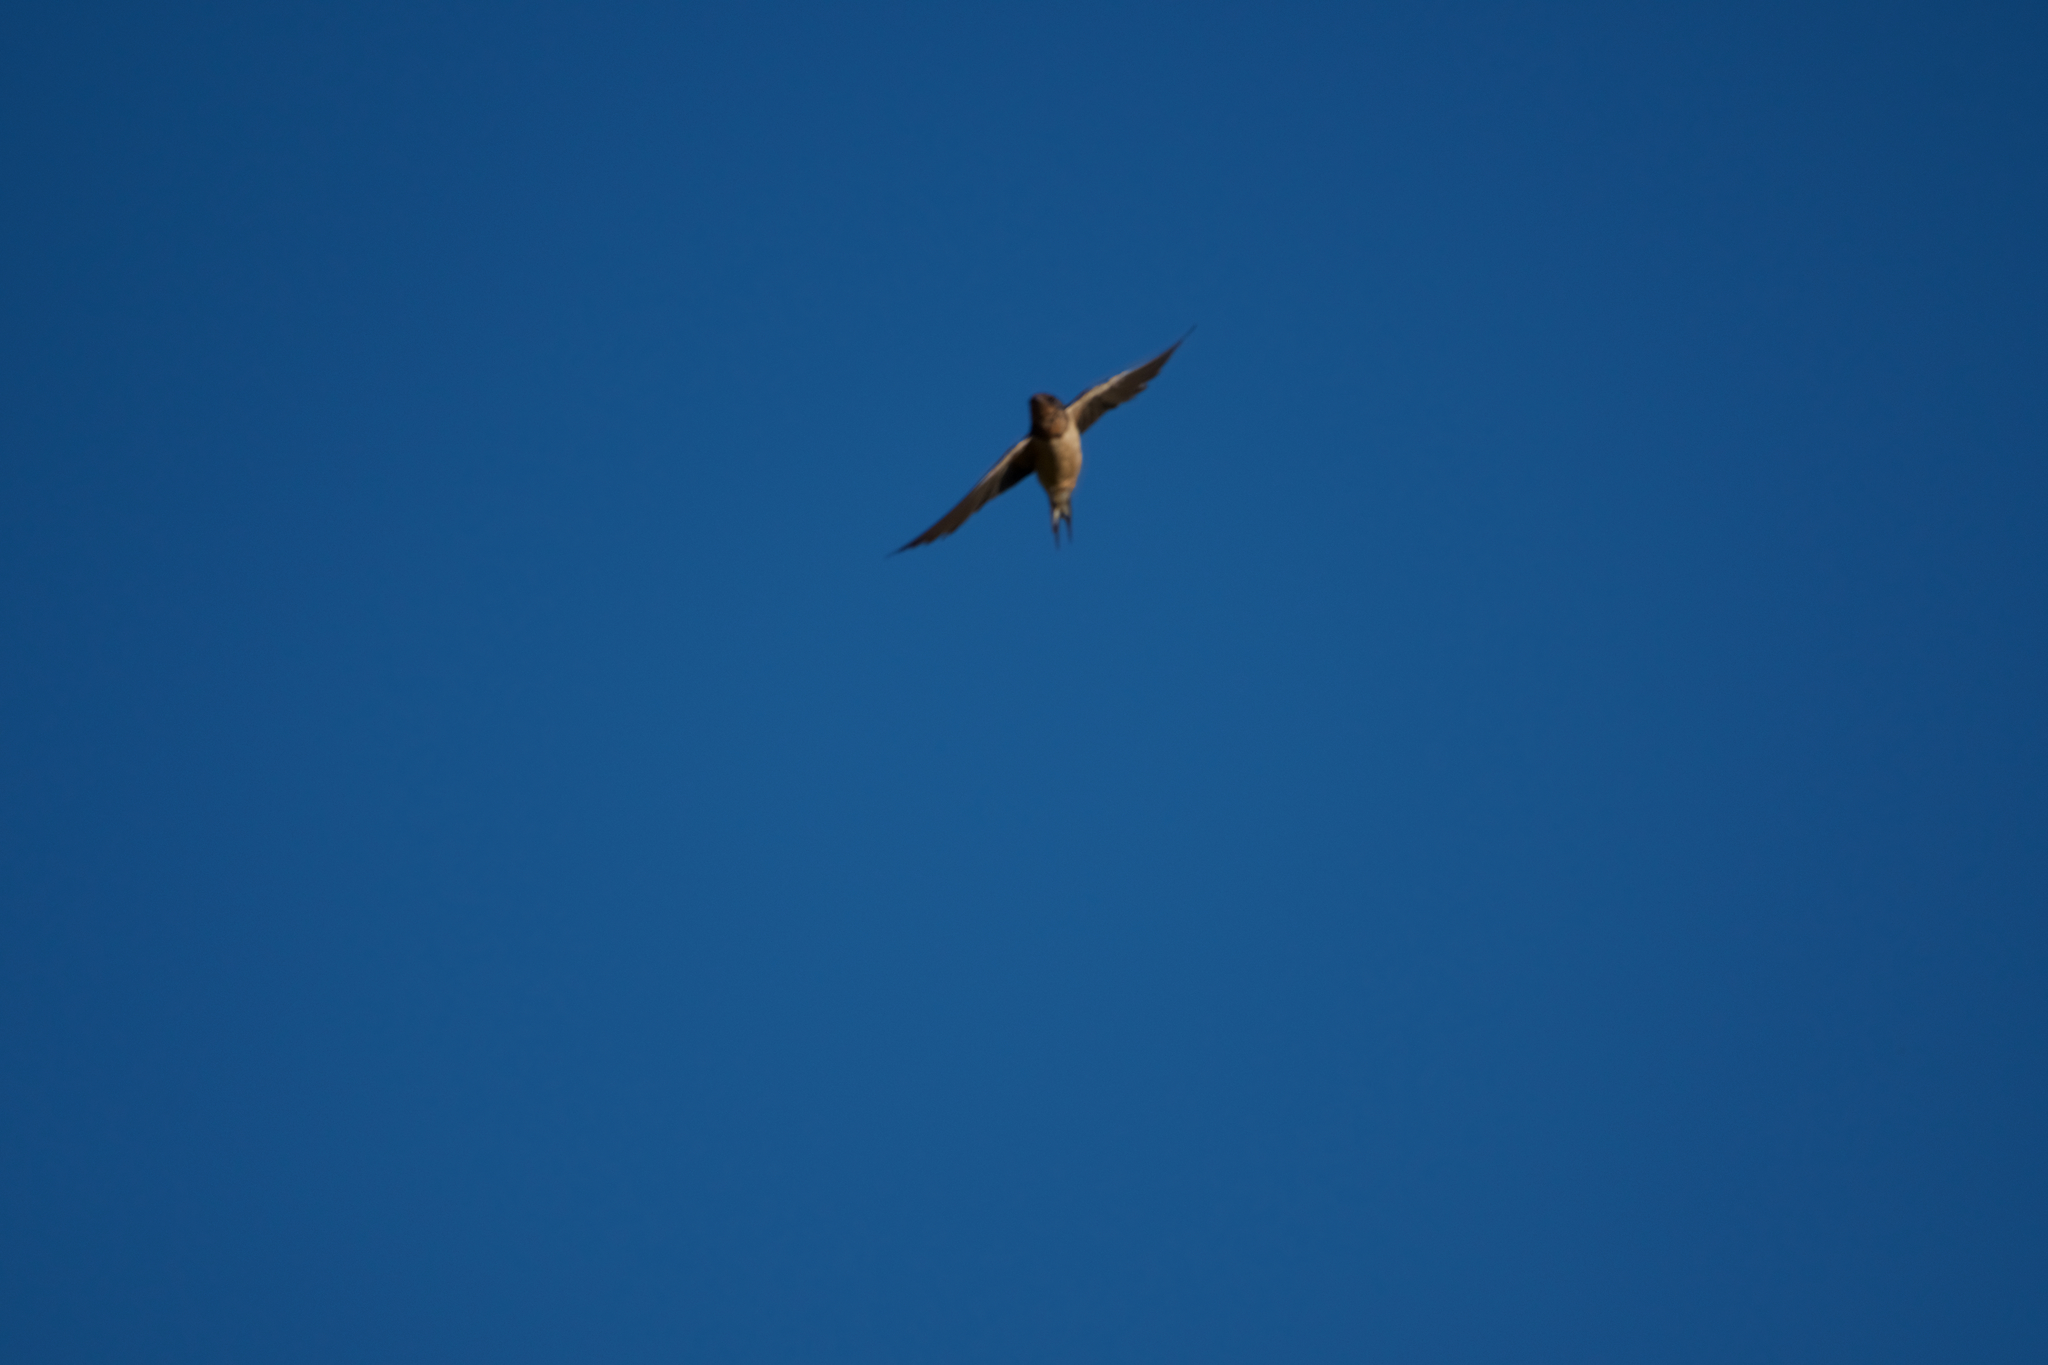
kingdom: Animalia
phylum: Chordata
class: Aves
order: Passeriformes
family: Hirundinidae
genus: Hirundo
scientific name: Hirundo rustica
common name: Barn swallow
